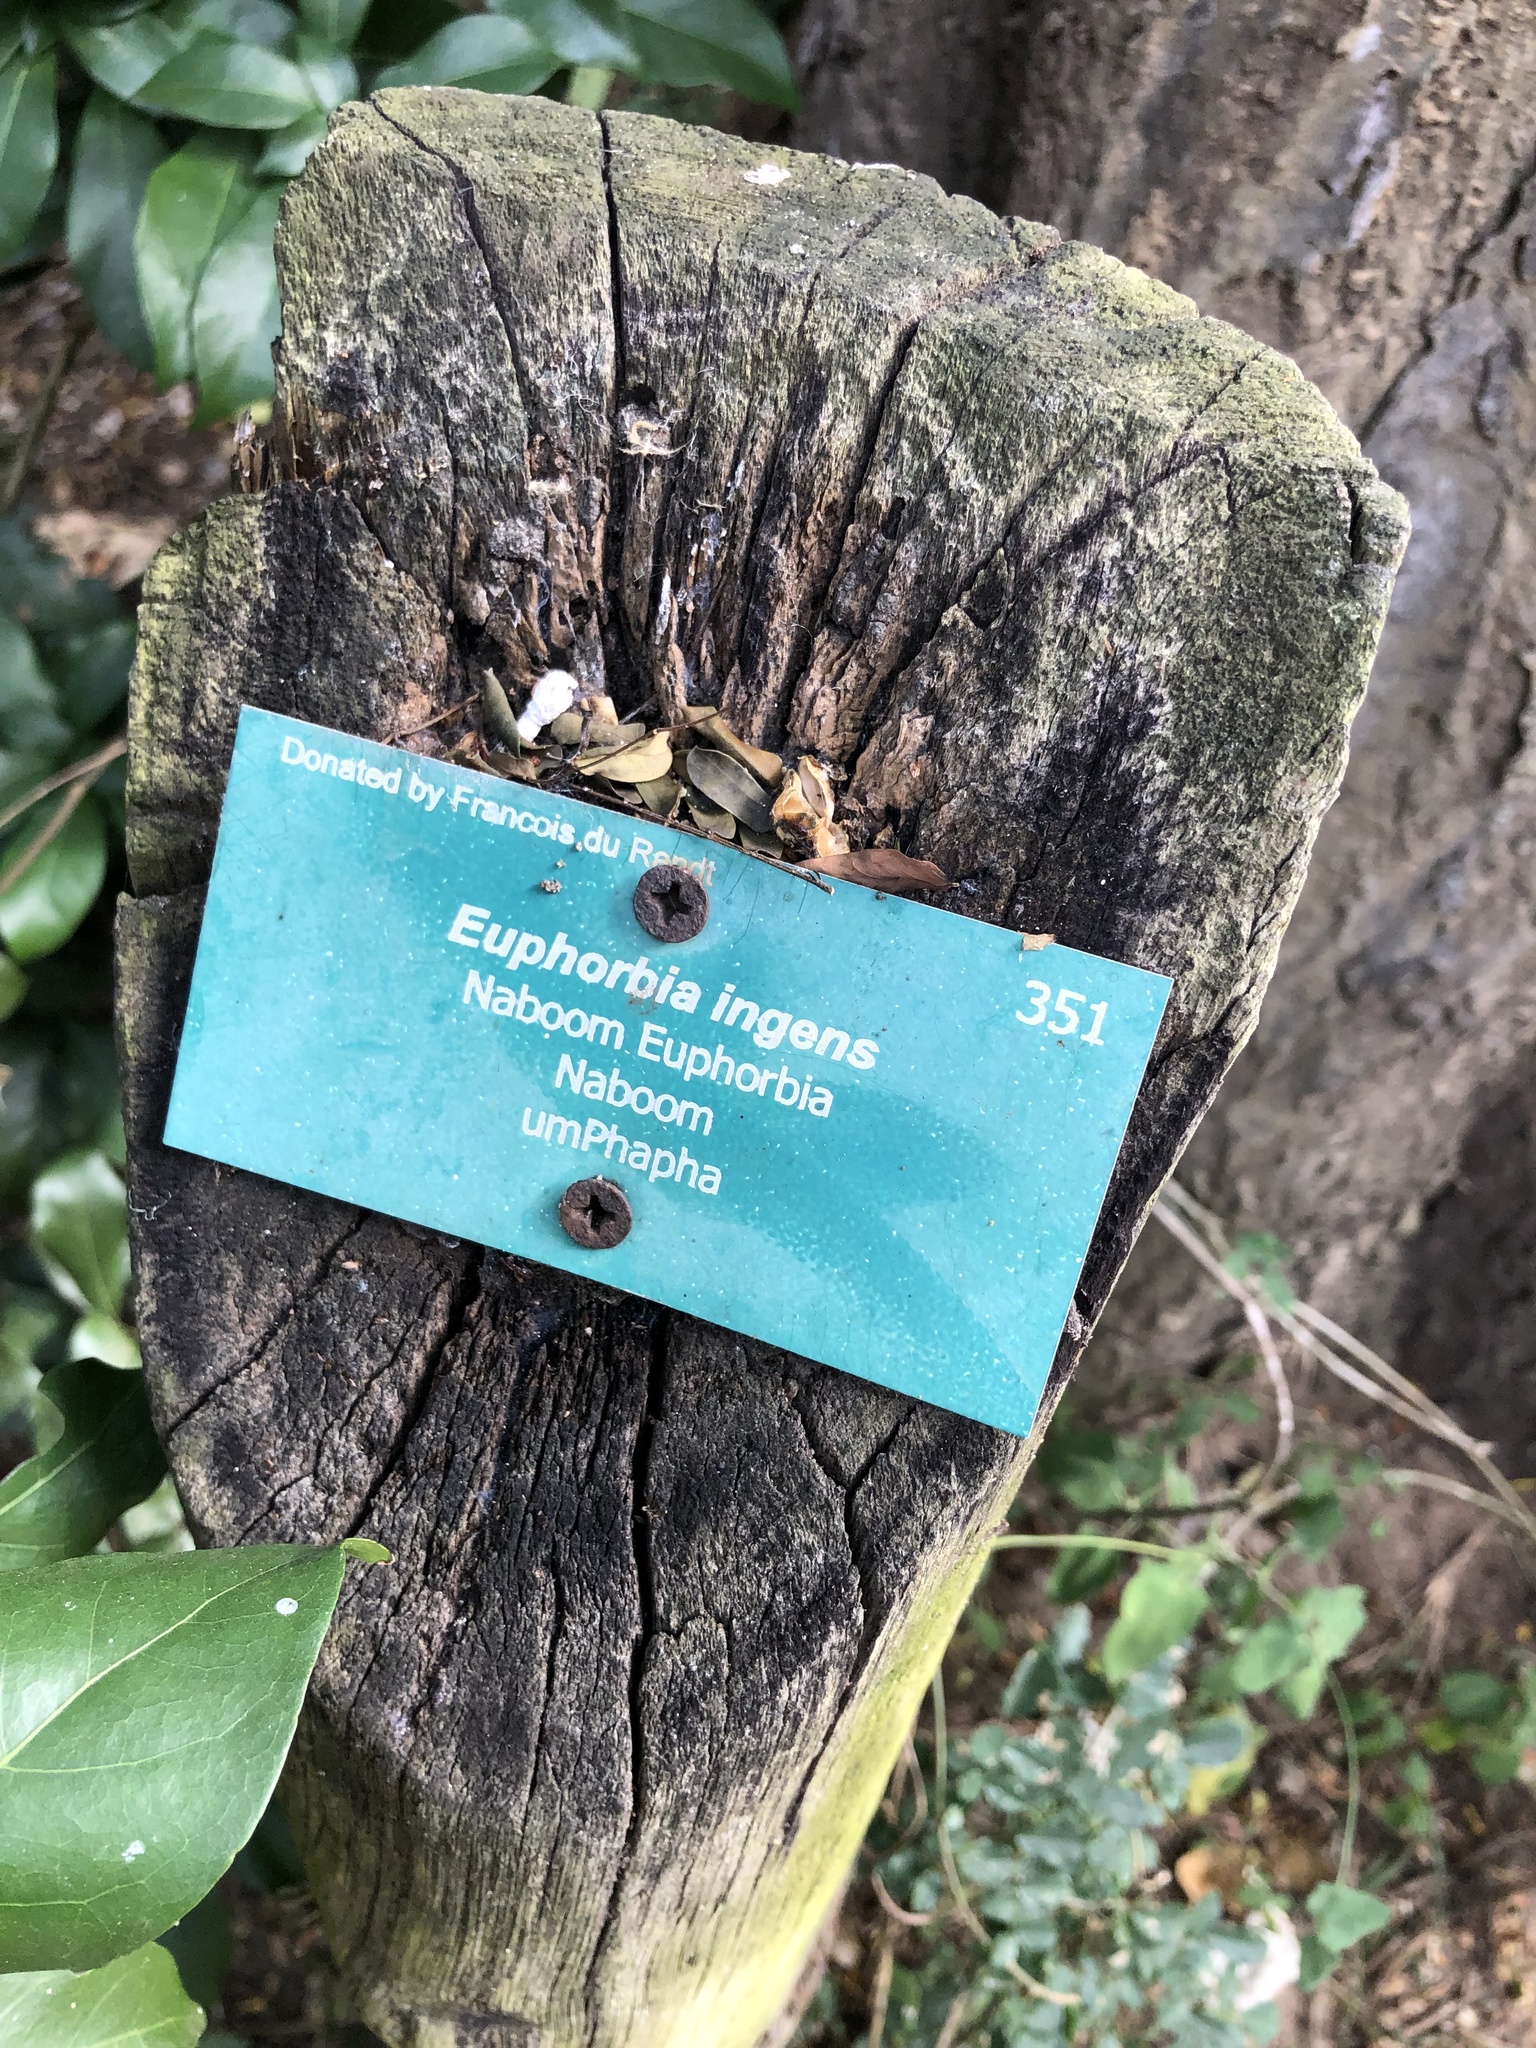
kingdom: Plantae
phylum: Tracheophyta
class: Magnoliopsida
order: Malpighiales
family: Euphorbiaceae
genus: Euphorbia
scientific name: Euphorbia ingens
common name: Cactus spurge
